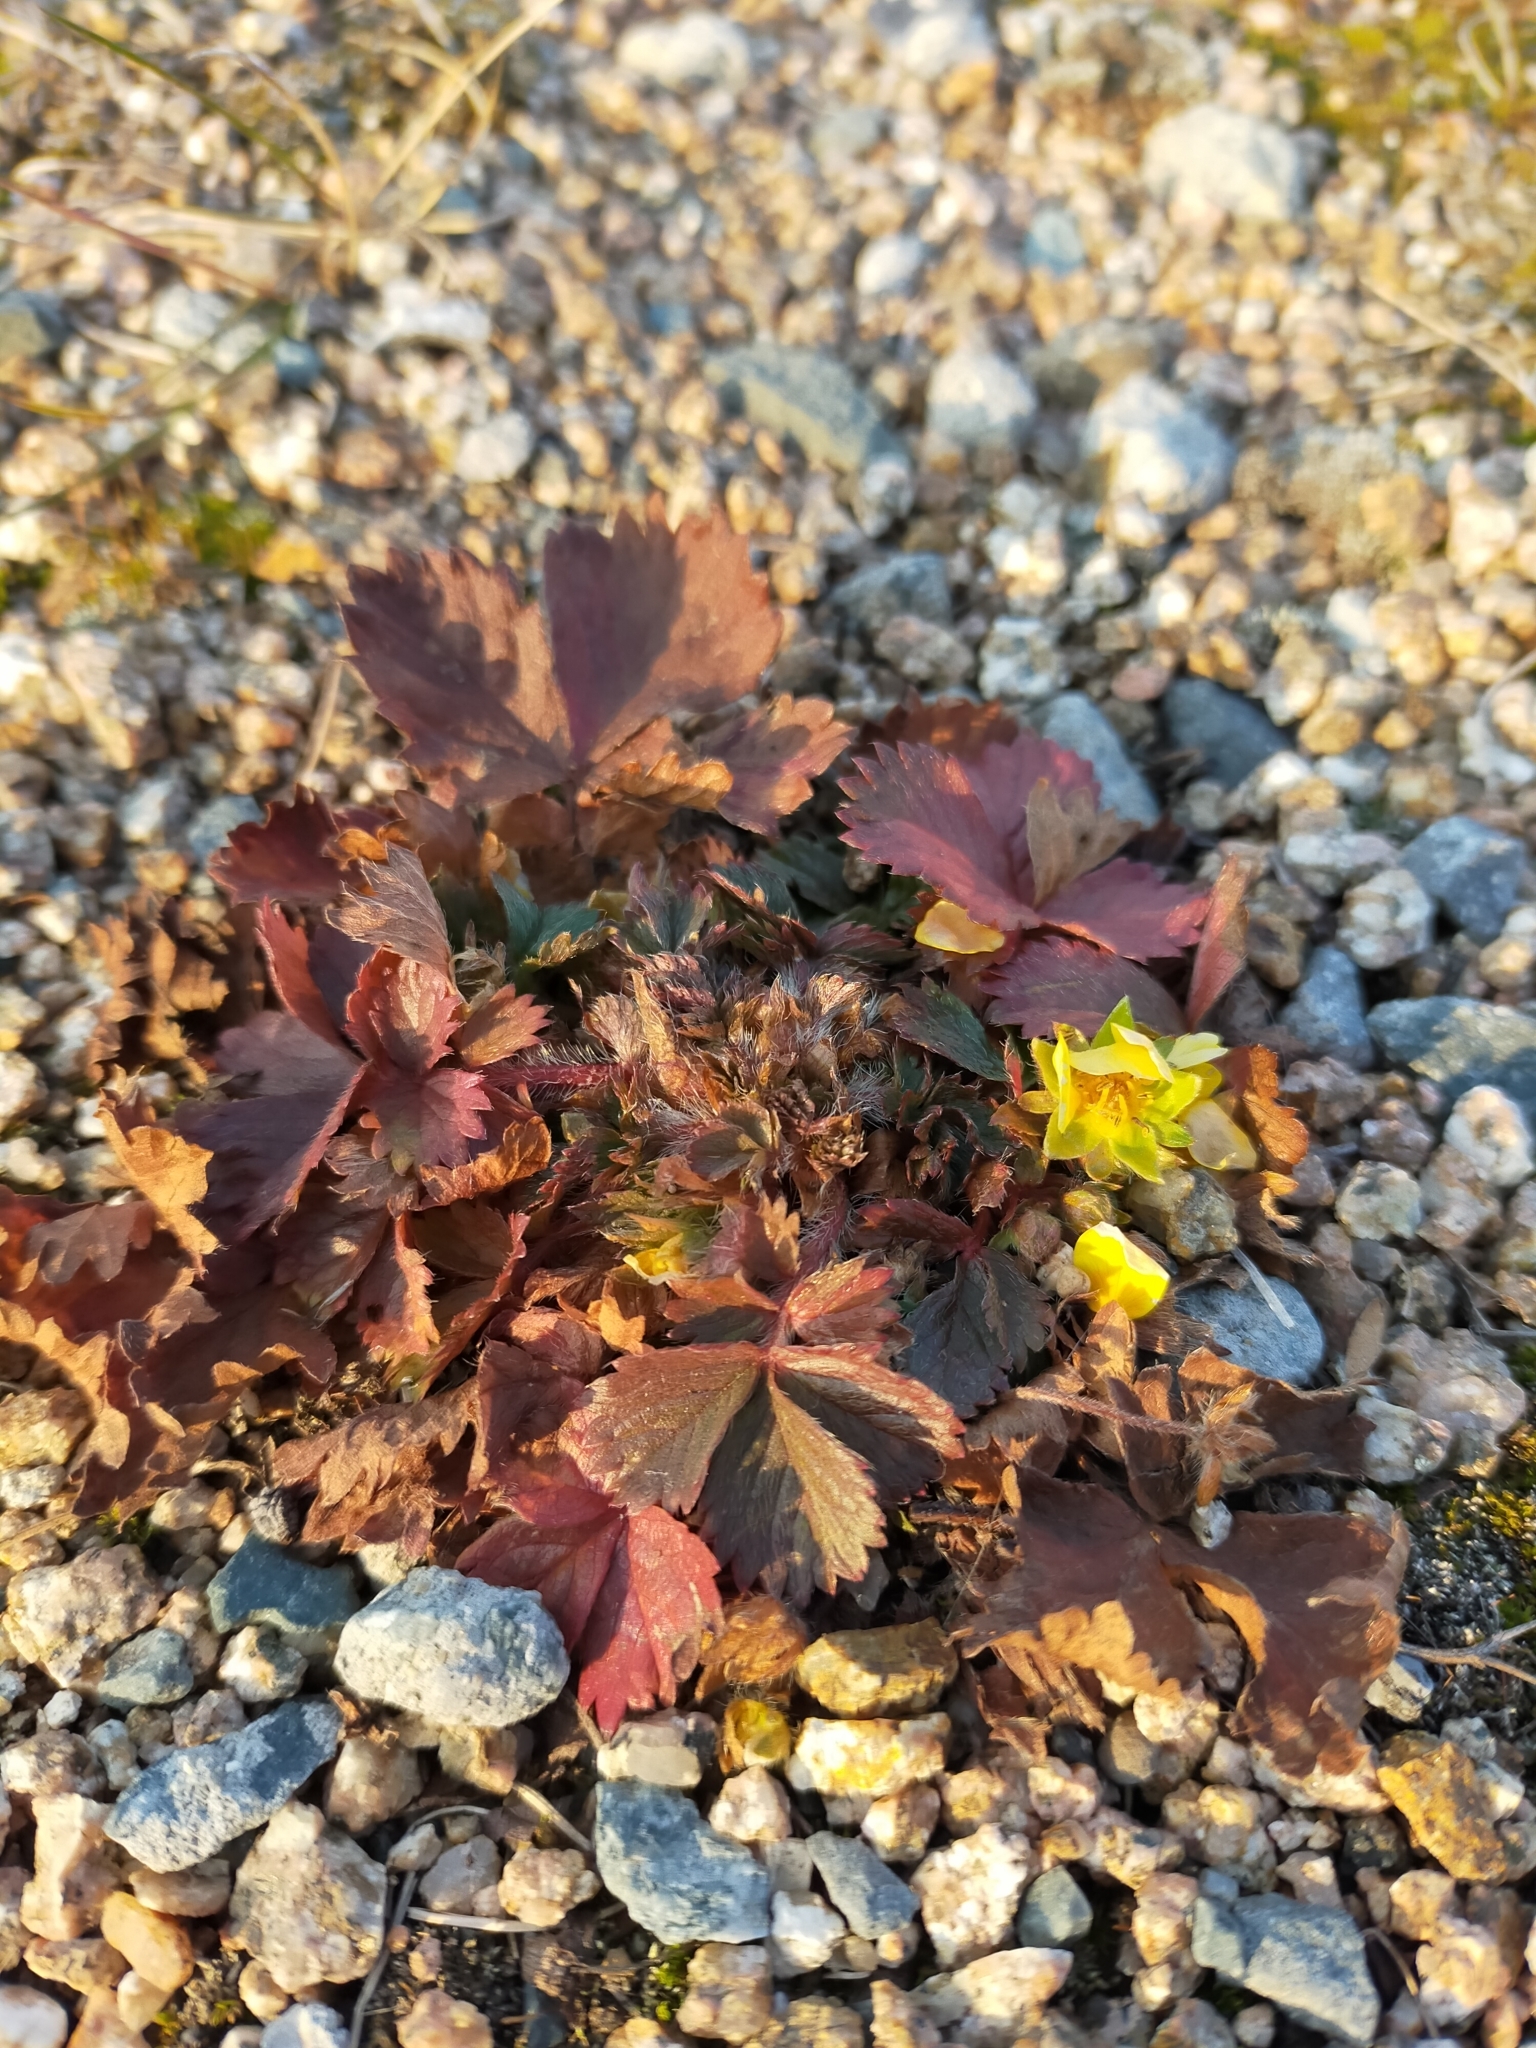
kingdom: Plantae
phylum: Tracheophyta
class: Magnoliopsida
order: Rosales
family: Rosaceae
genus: Potentilla
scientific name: Potentilla fragarioides
